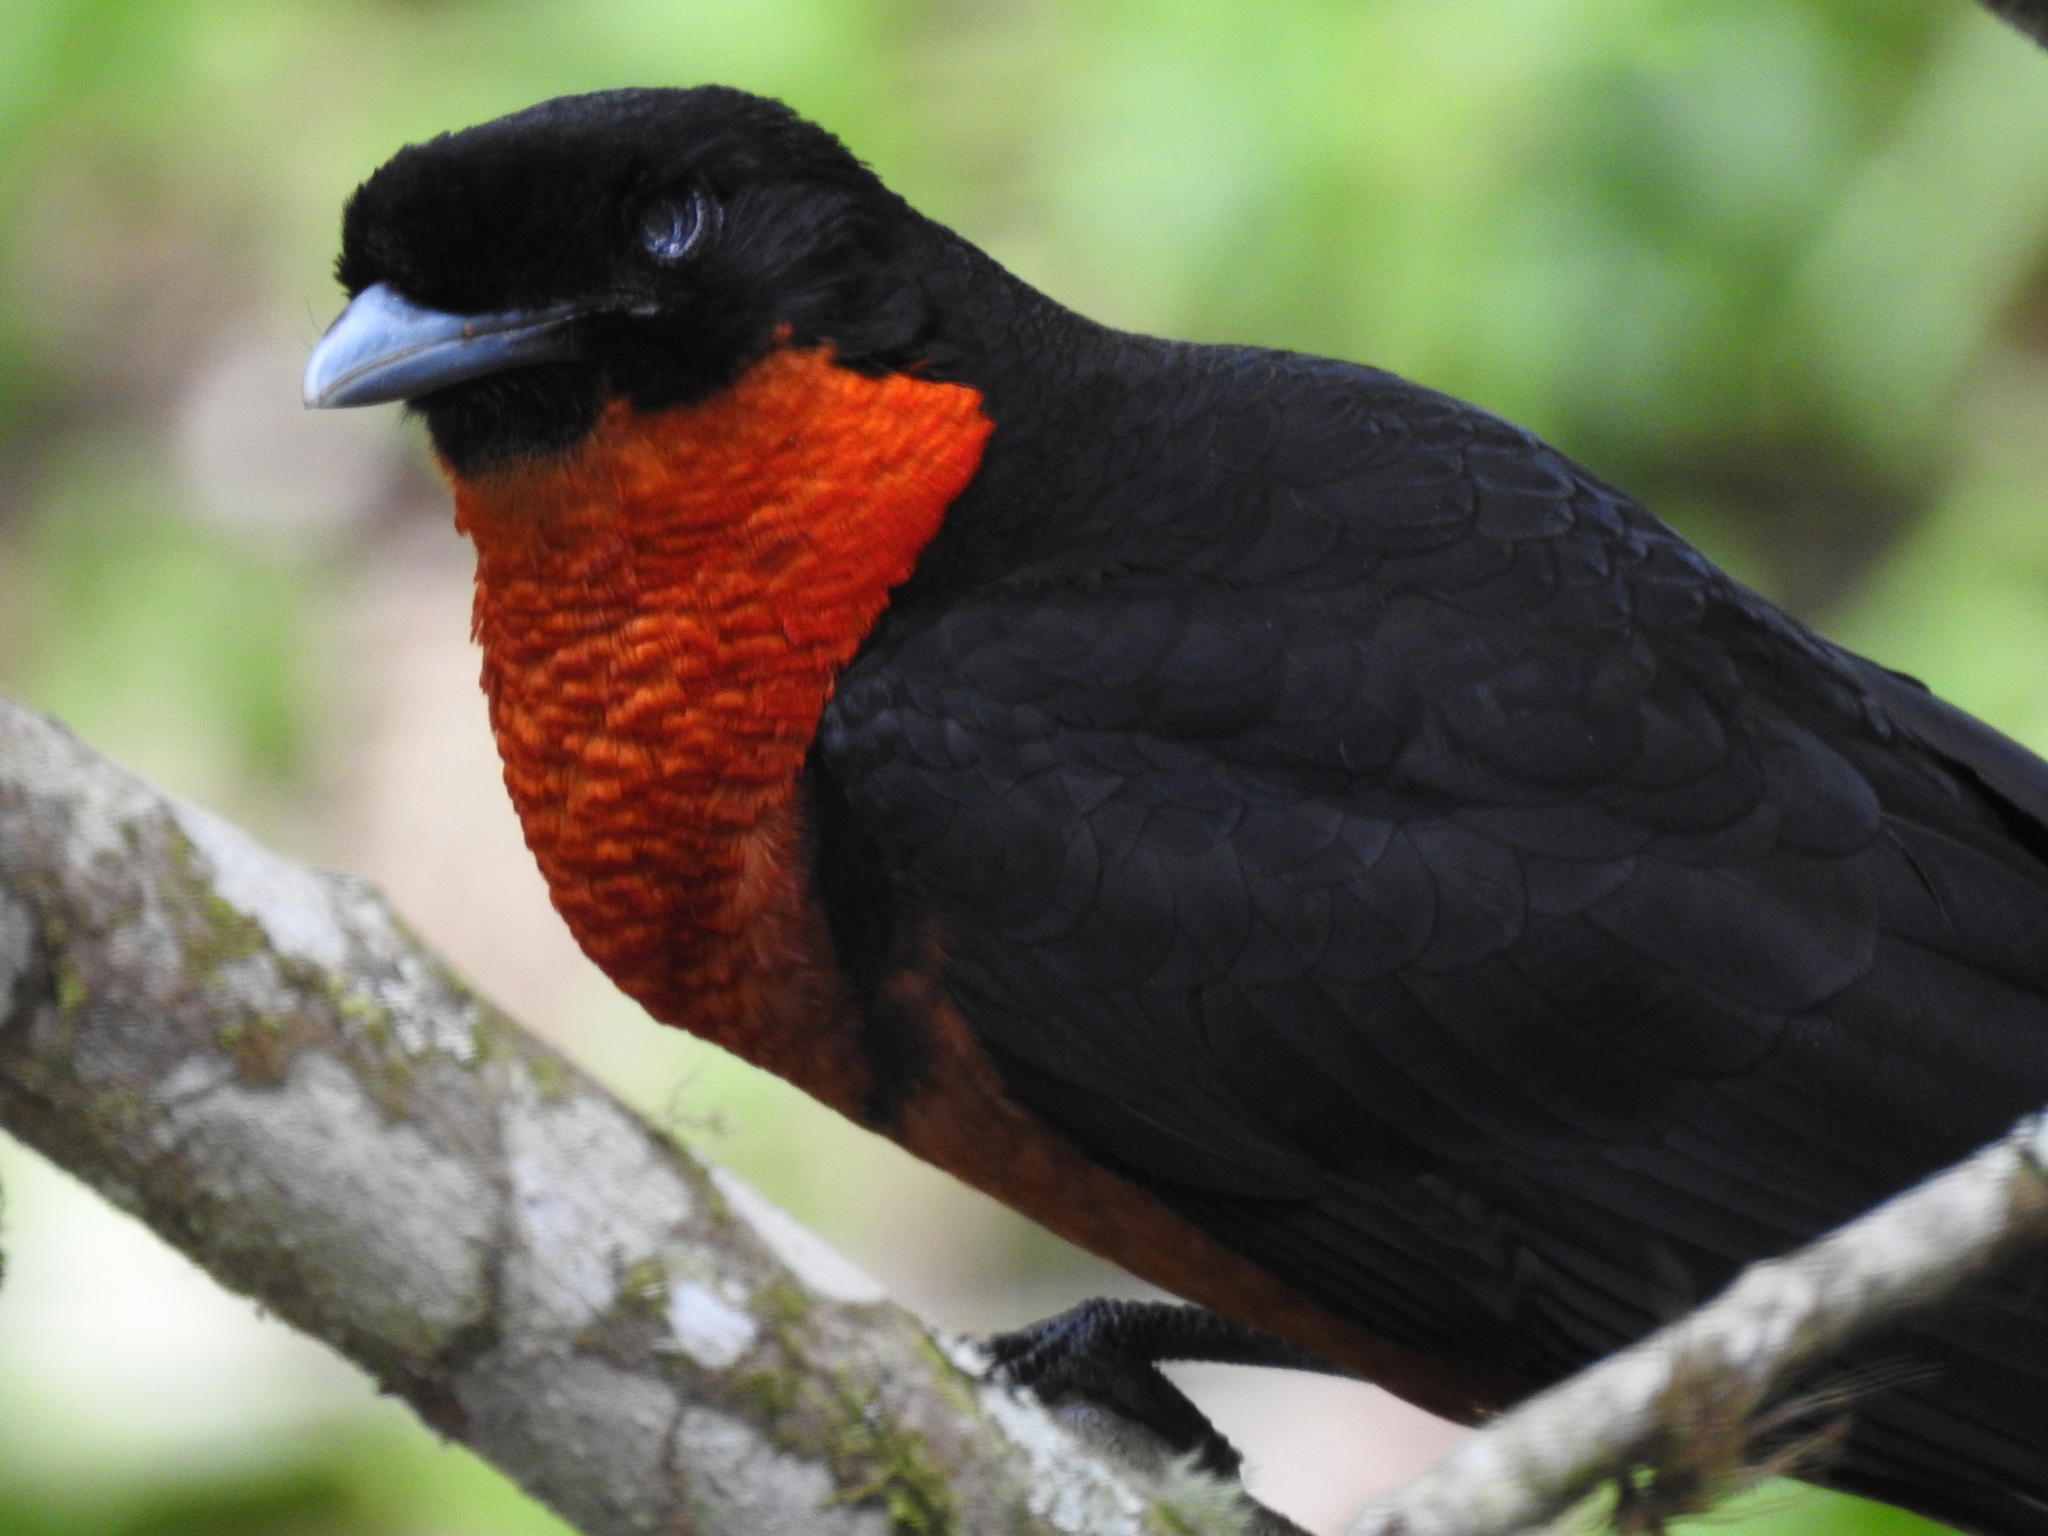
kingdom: Animalia
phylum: Chordata
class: Aves
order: Passeriformes
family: Cotingidae
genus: Pyroderus
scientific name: Pyroderus scutatus
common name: Red-ruffed fruitcrow
